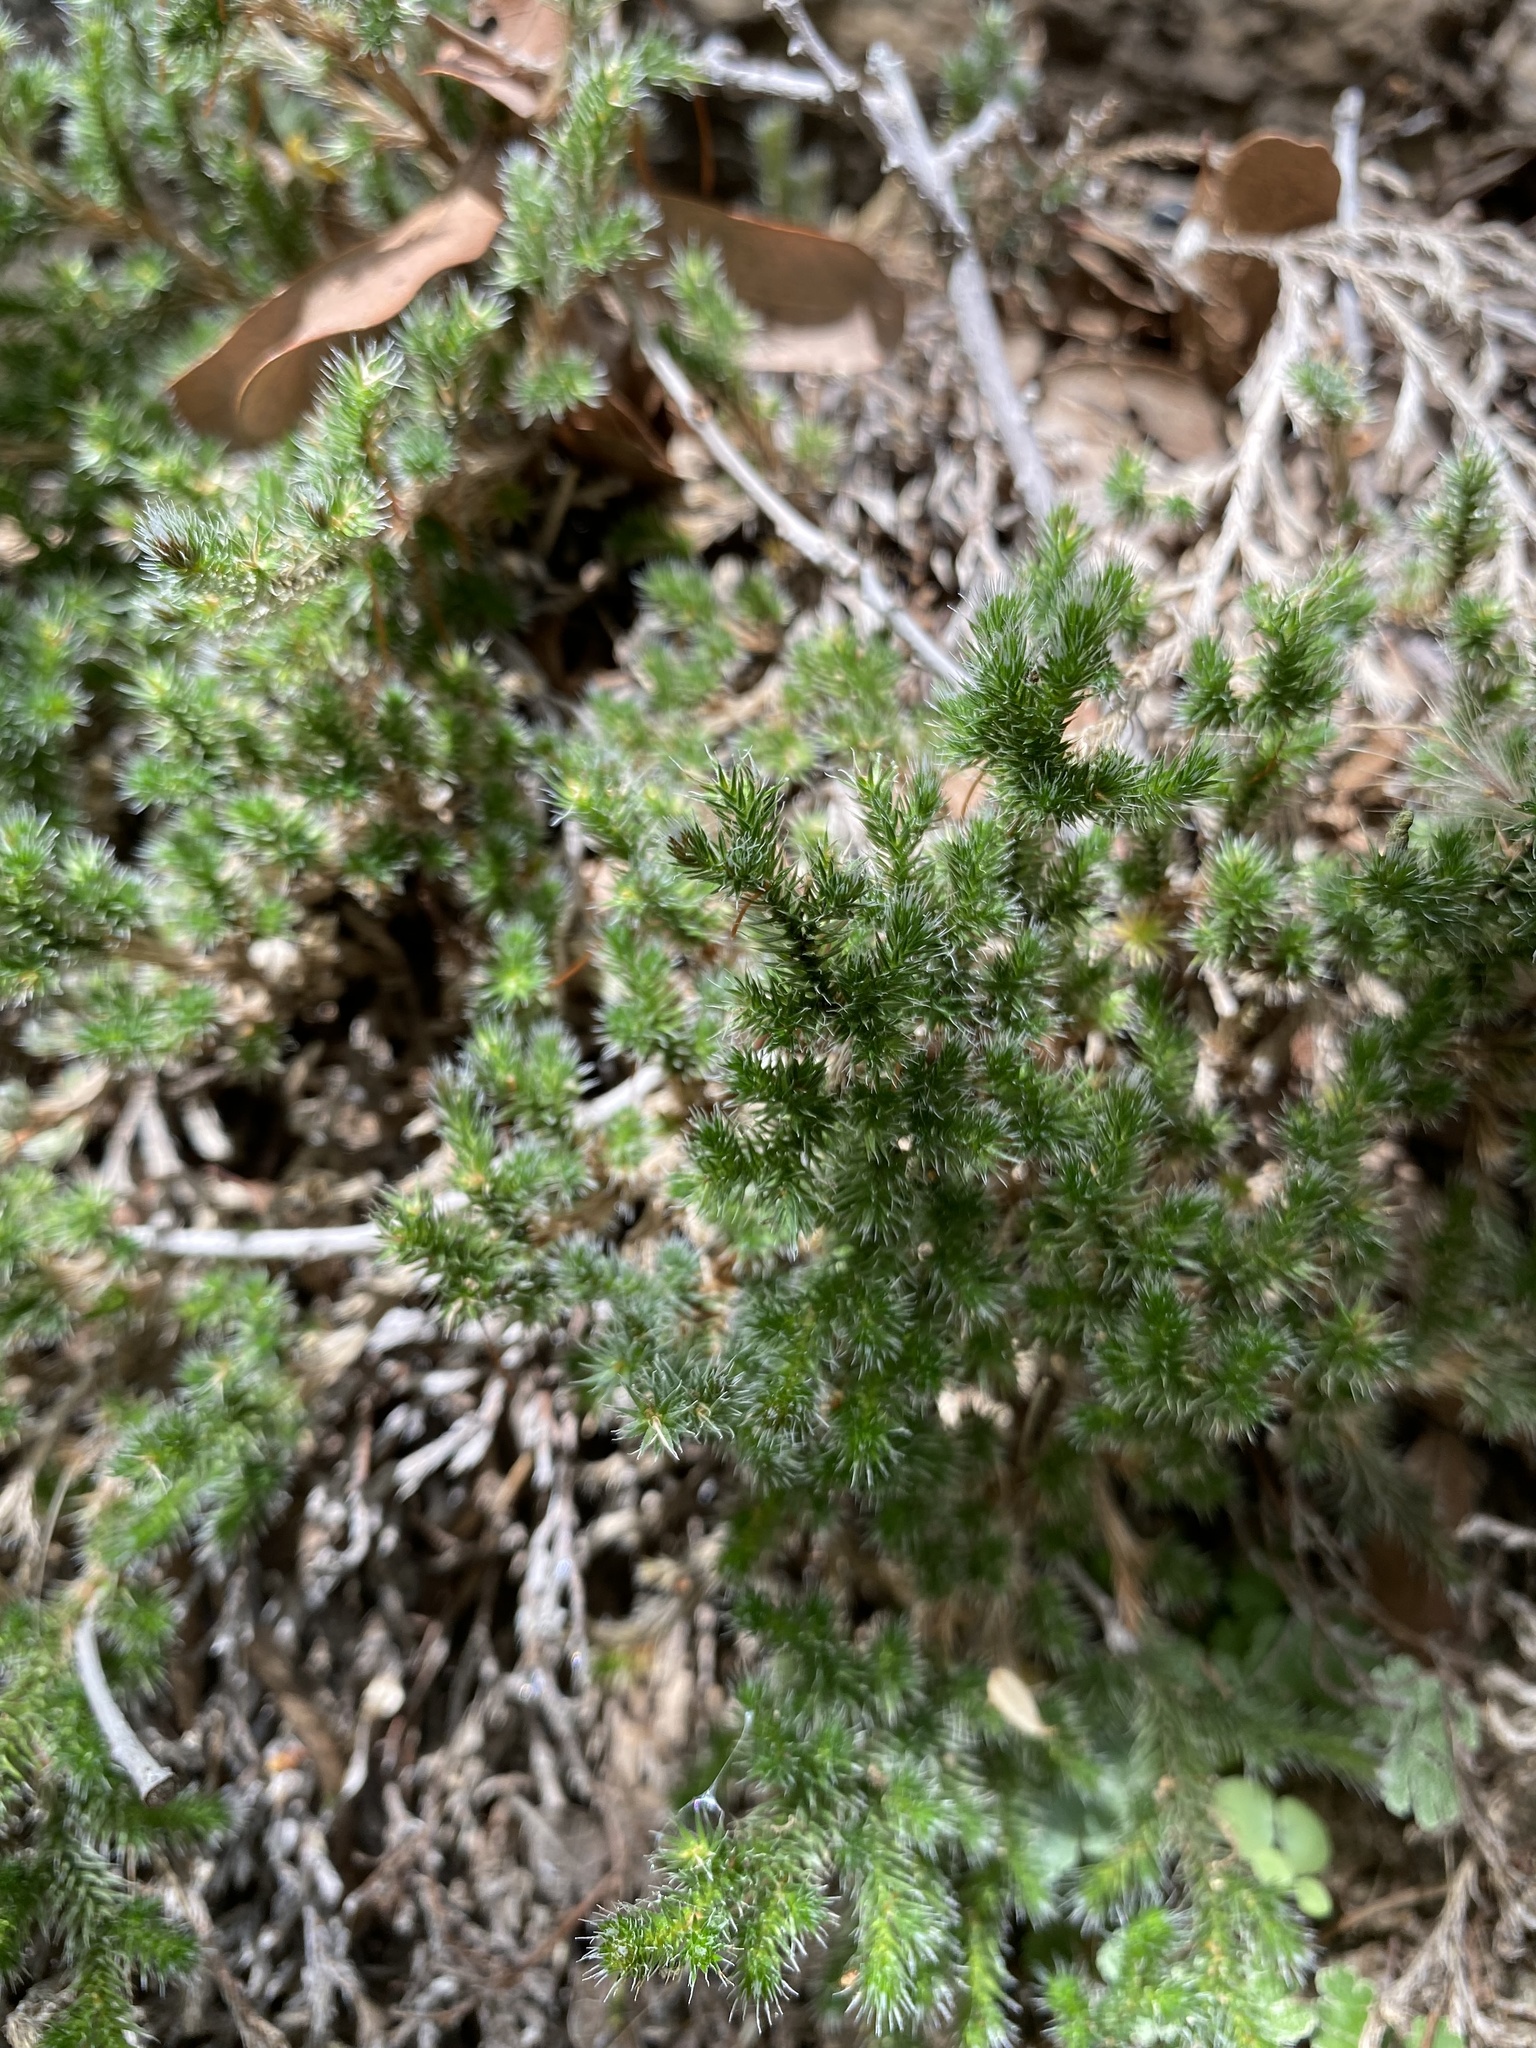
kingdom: Plantae
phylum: Tracheophyta
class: Lycopodiopsida
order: Selaginellales
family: Selaginellaceae
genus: Selaginella
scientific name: Selaginella rupincola
